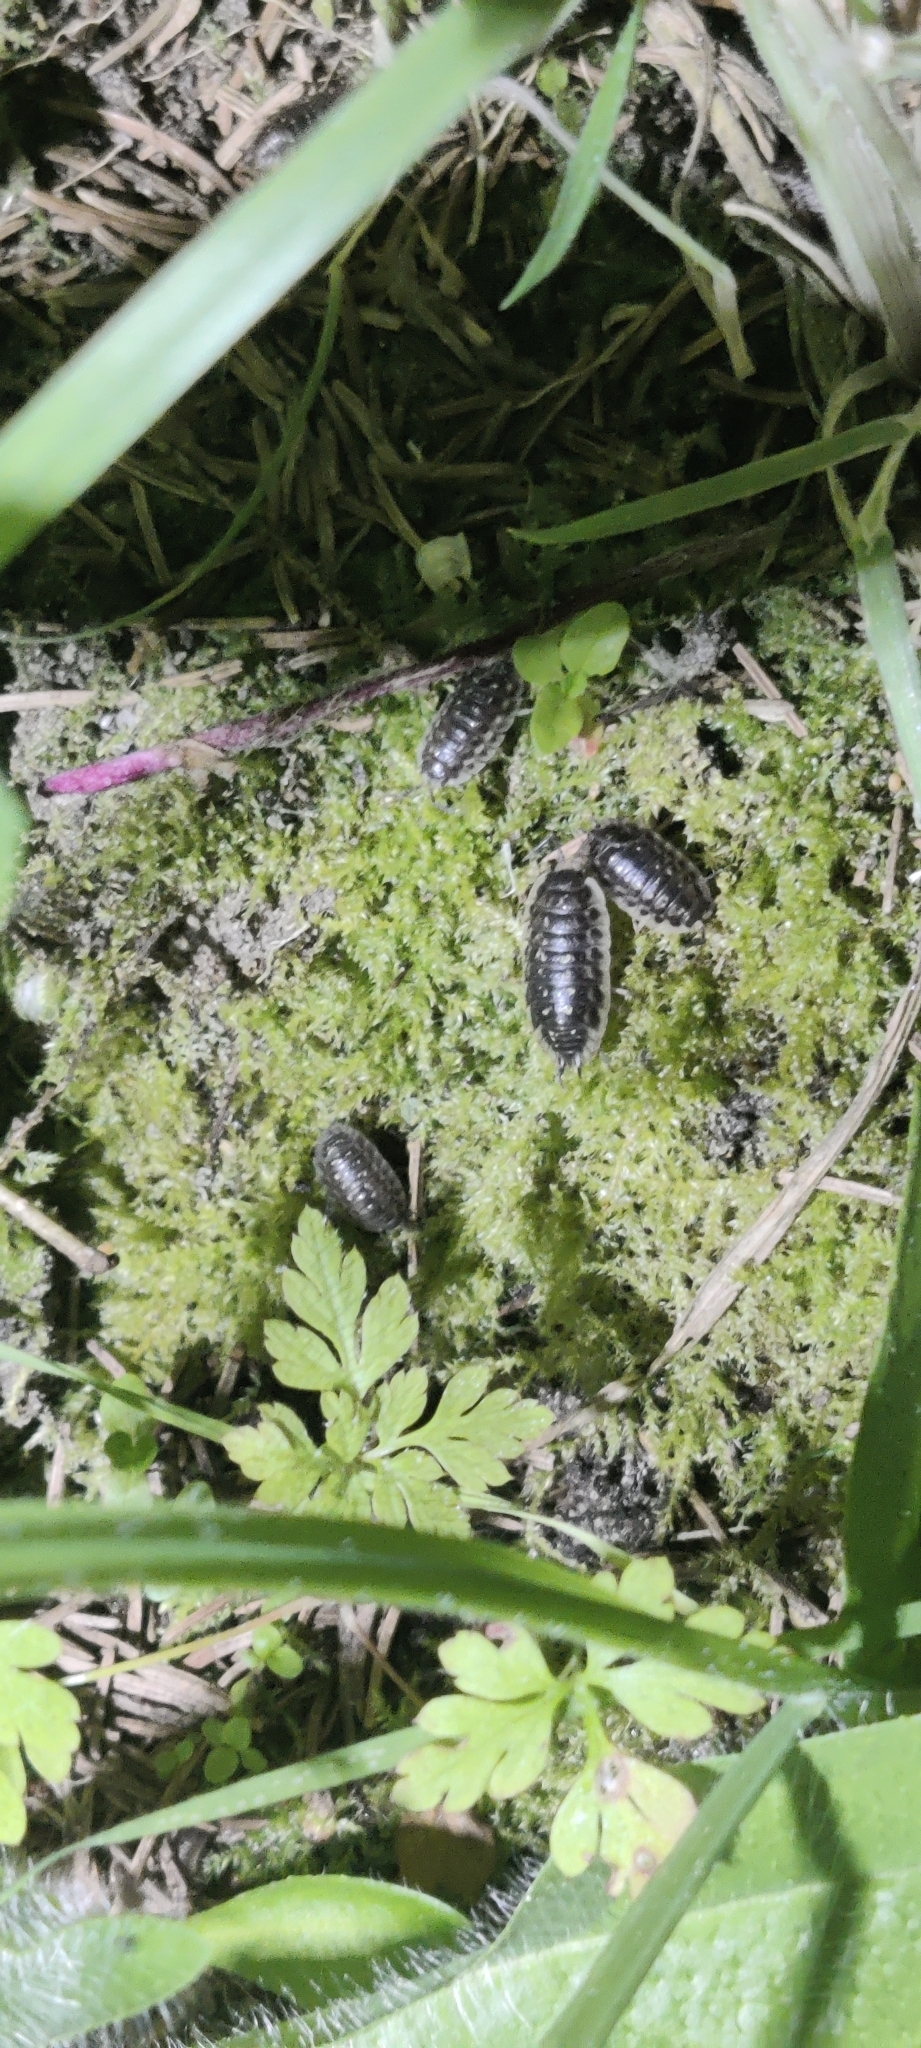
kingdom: Animalia
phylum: Arthropoda
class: Malacostraca
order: Isopoda
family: Oniscidae
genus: Oniscus
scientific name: Oniscus asellus
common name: Common shiny woodlouse
